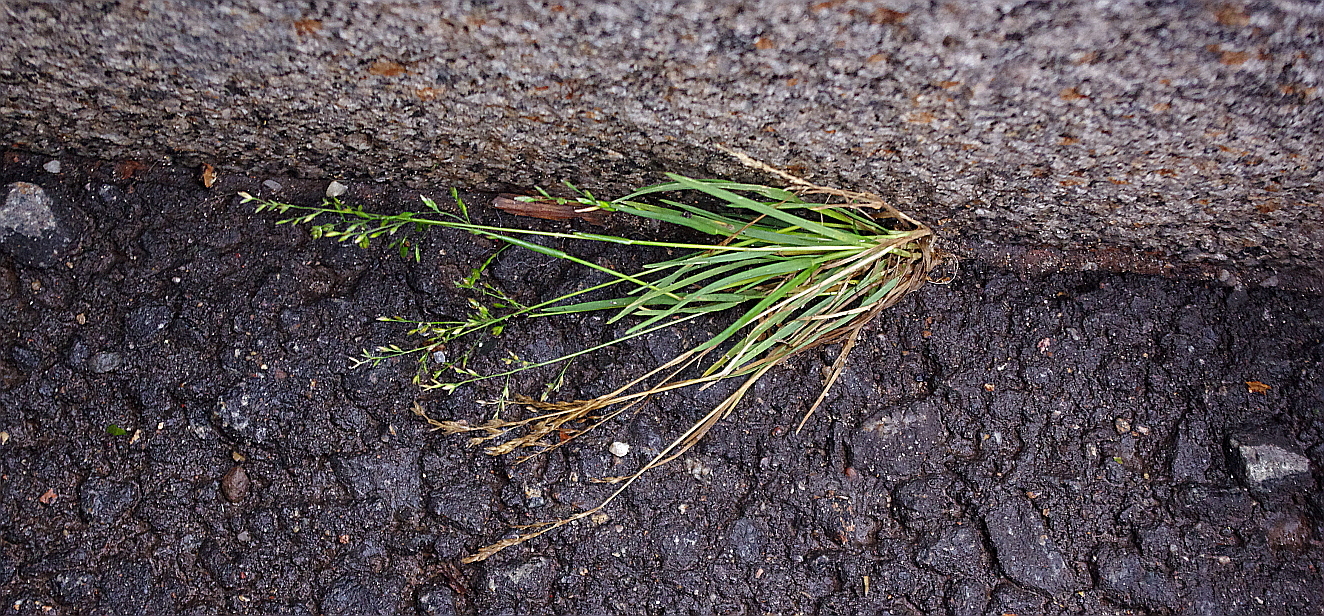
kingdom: Plantae
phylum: Tracheophyta
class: Liliopsida
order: Poales
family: Poaceae
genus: Poa
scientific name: Poa annua
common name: Annual bluegrass
